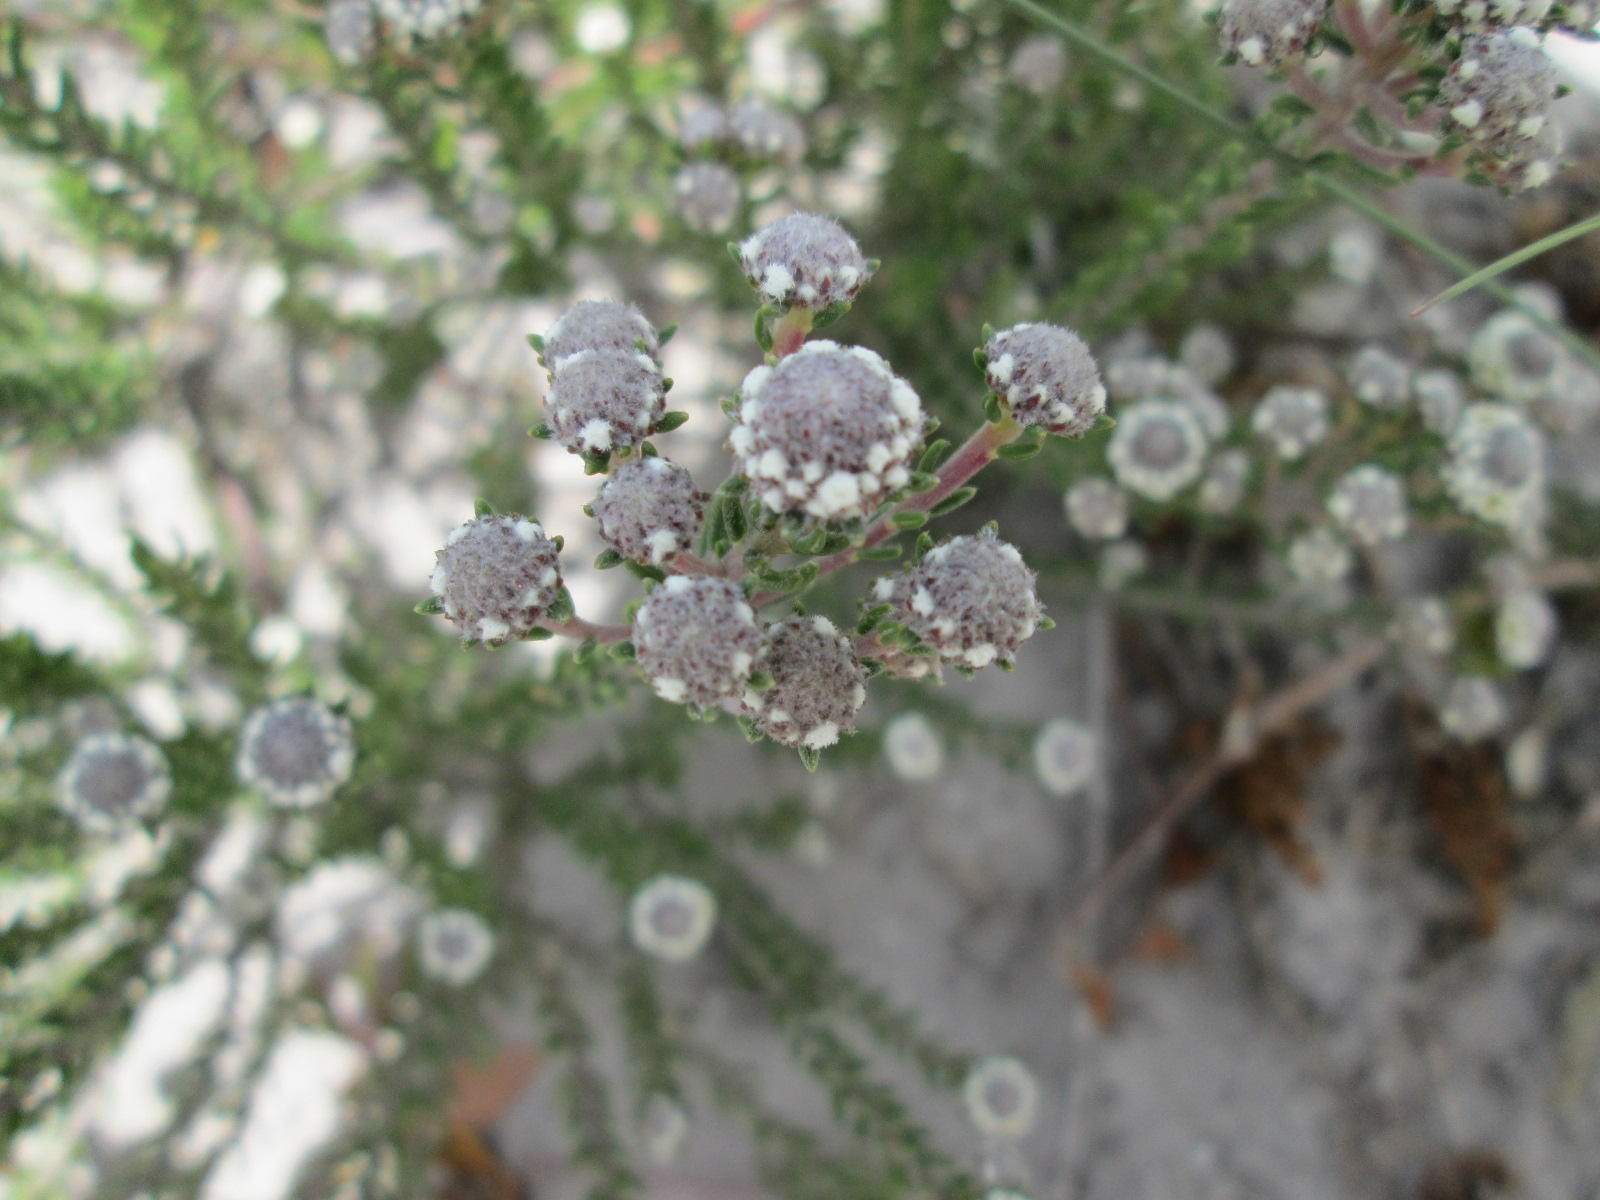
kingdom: Plantae
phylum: Tracheophyta
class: Magnoliopsida
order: Rosales
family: Rhamnaceae
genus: Phylica
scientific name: Phylica selaginoides
